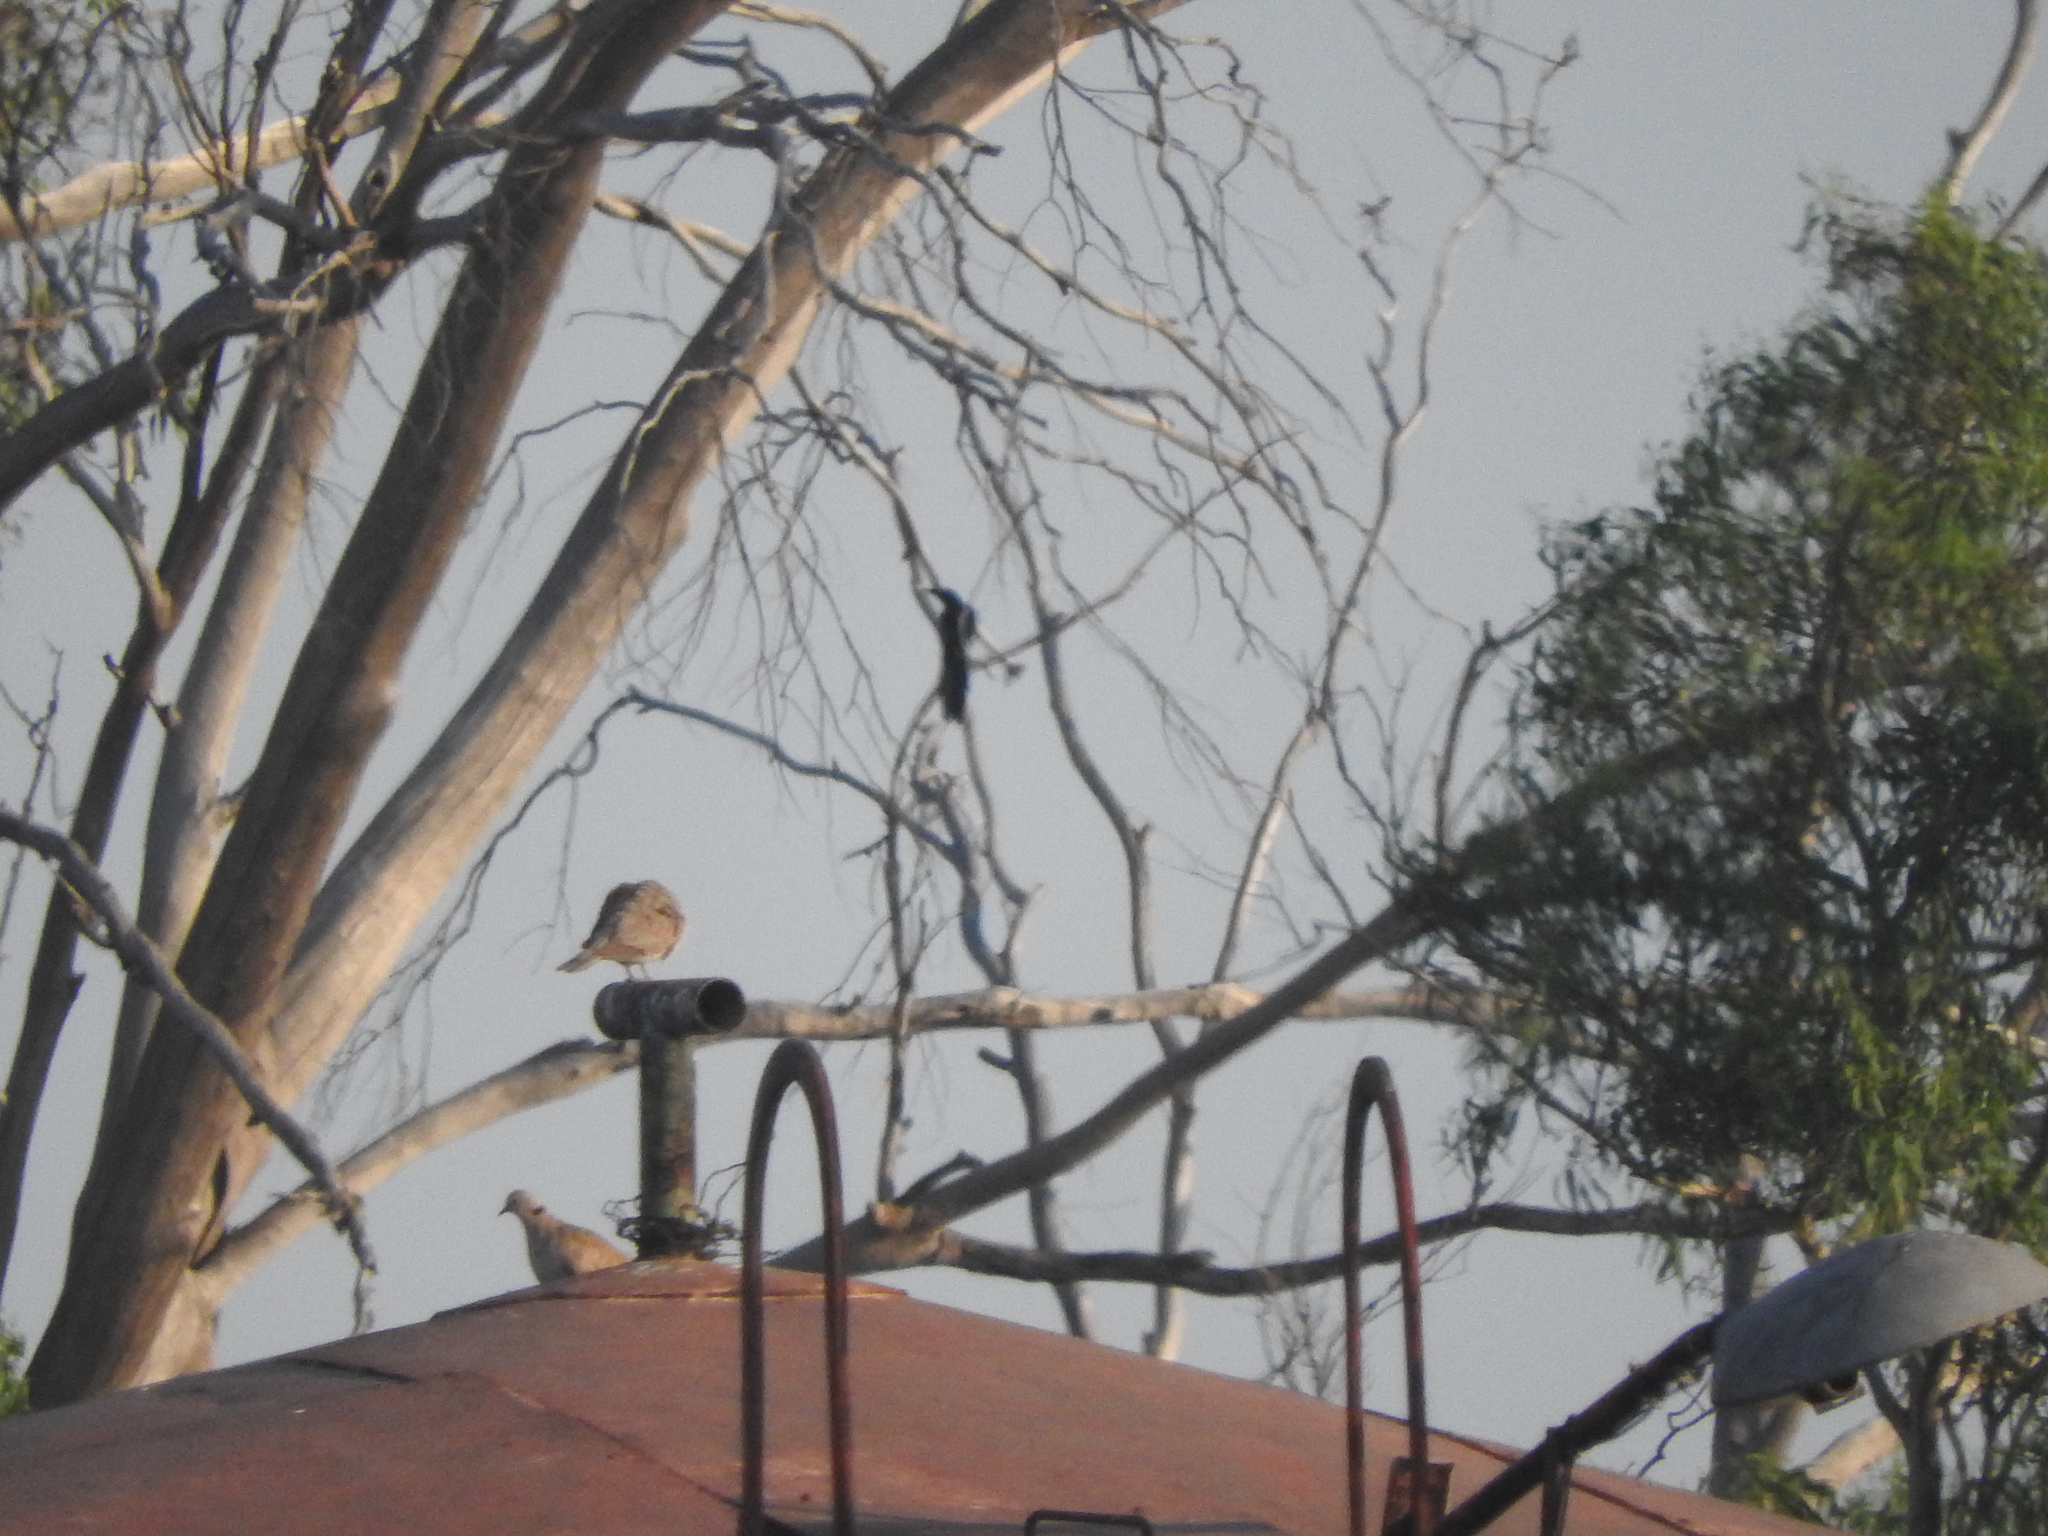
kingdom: Animalia
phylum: Chordata
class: Aves
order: Passeriformes
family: Icteridae
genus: Quiscalus
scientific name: Quiscalus mexicanus
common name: Great-tailed grackle
